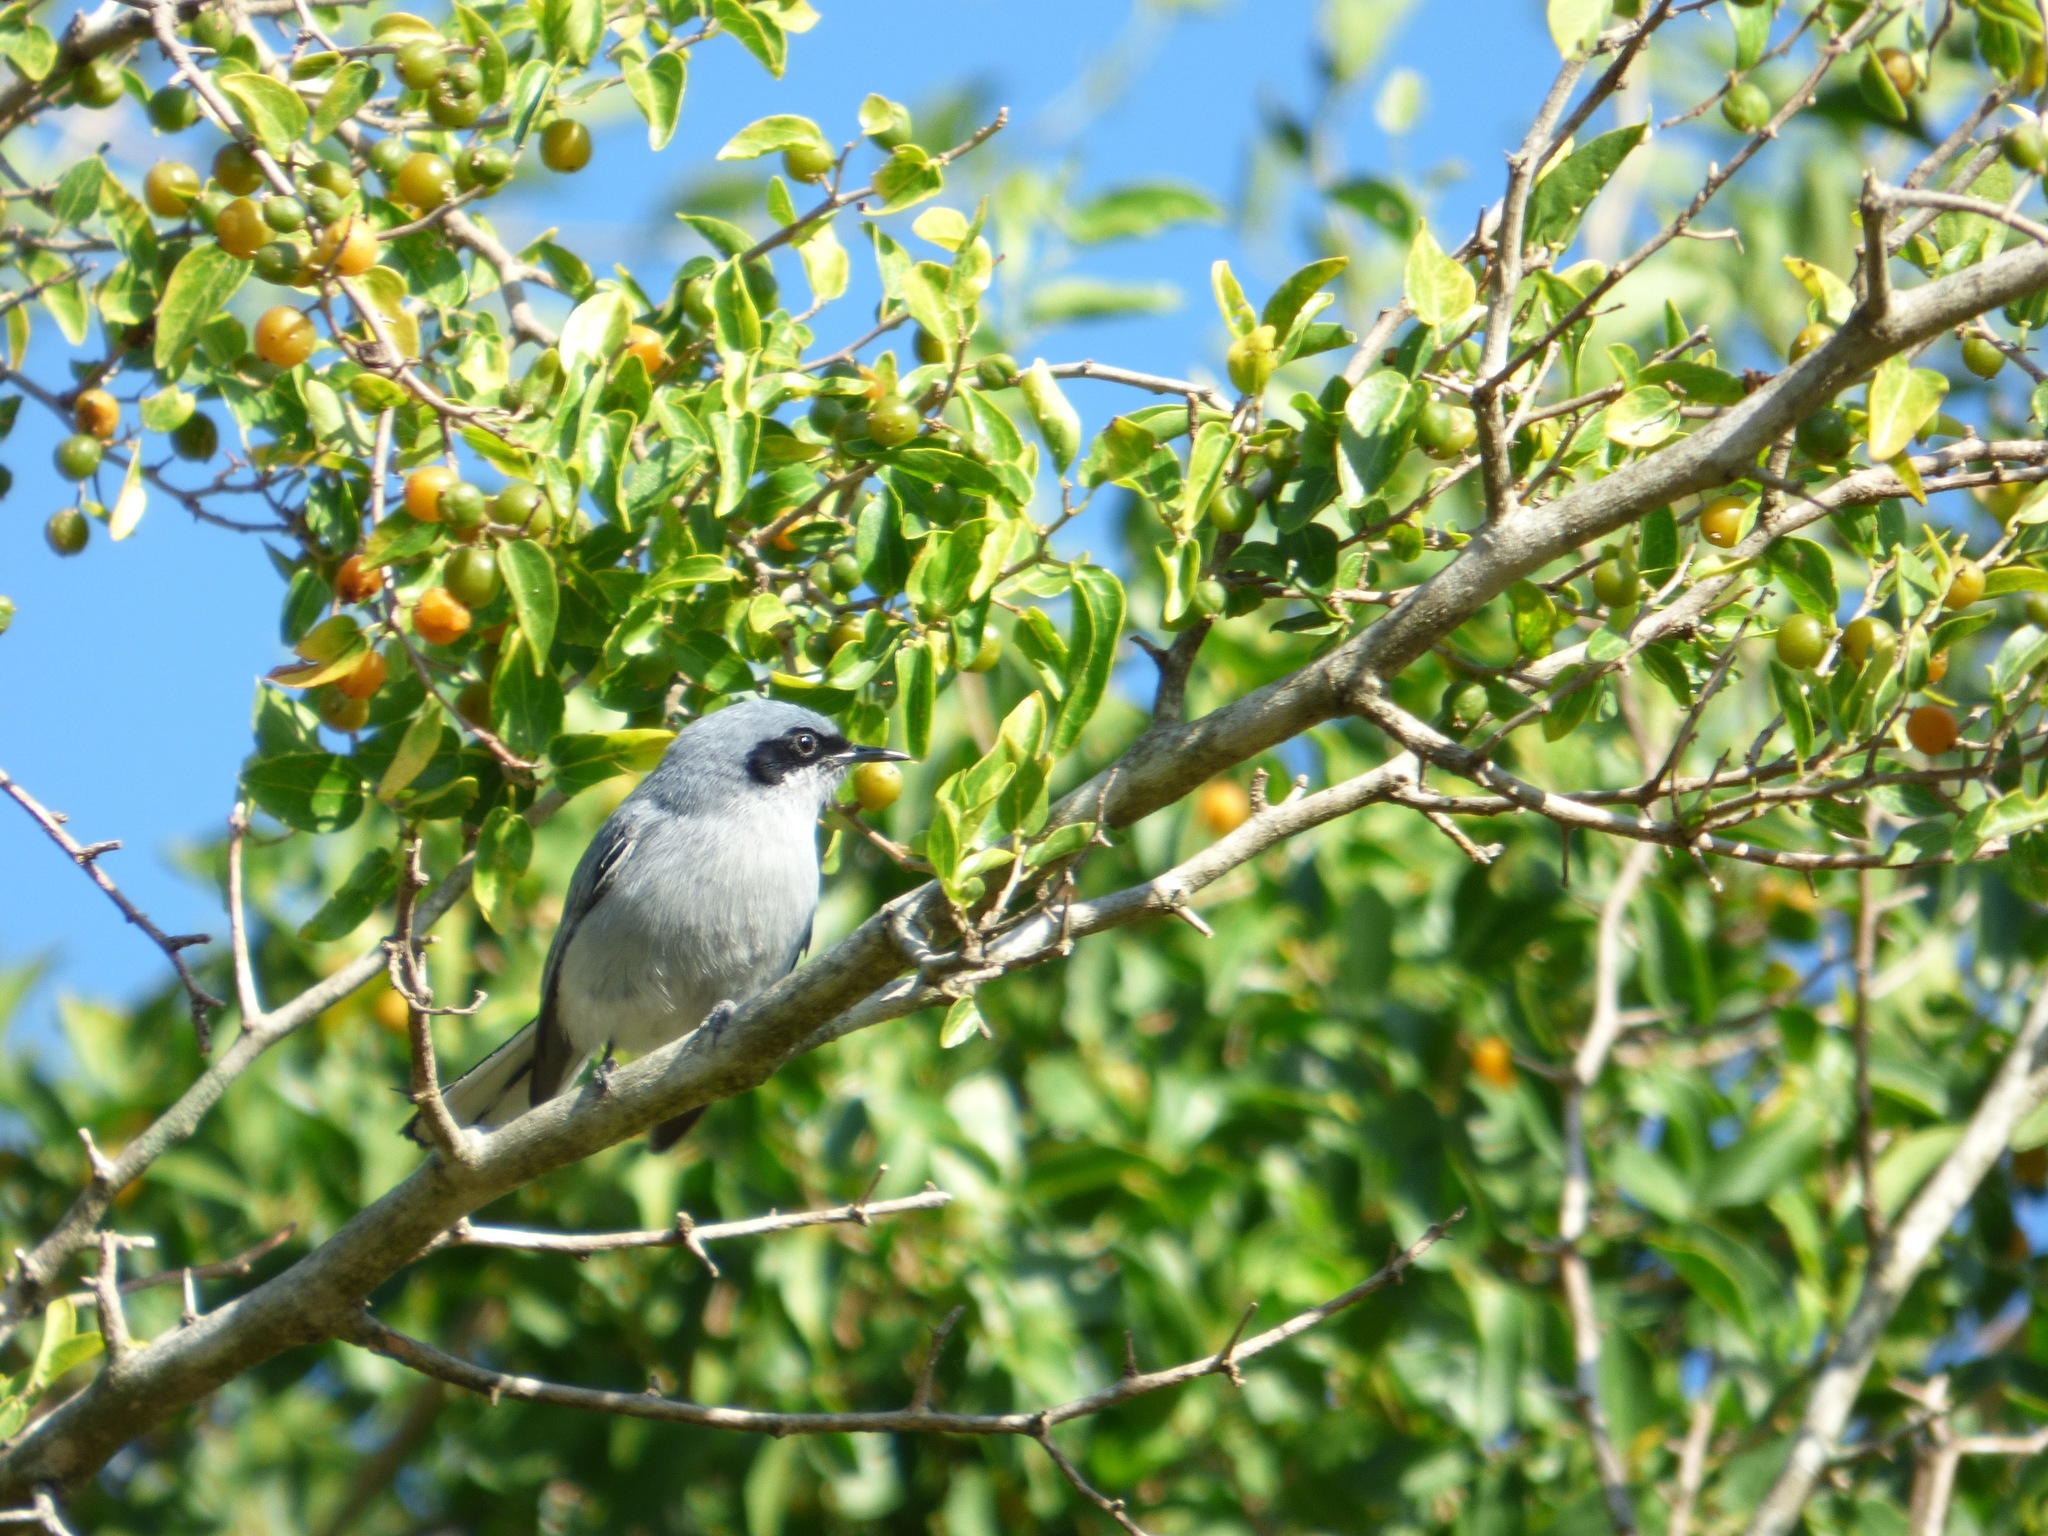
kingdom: Animalia
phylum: Chordata
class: Aves
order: Passeriformes
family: Polioptilidae
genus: Polioptila
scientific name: Polioptila dumicola
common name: Masked gnatcatcher
